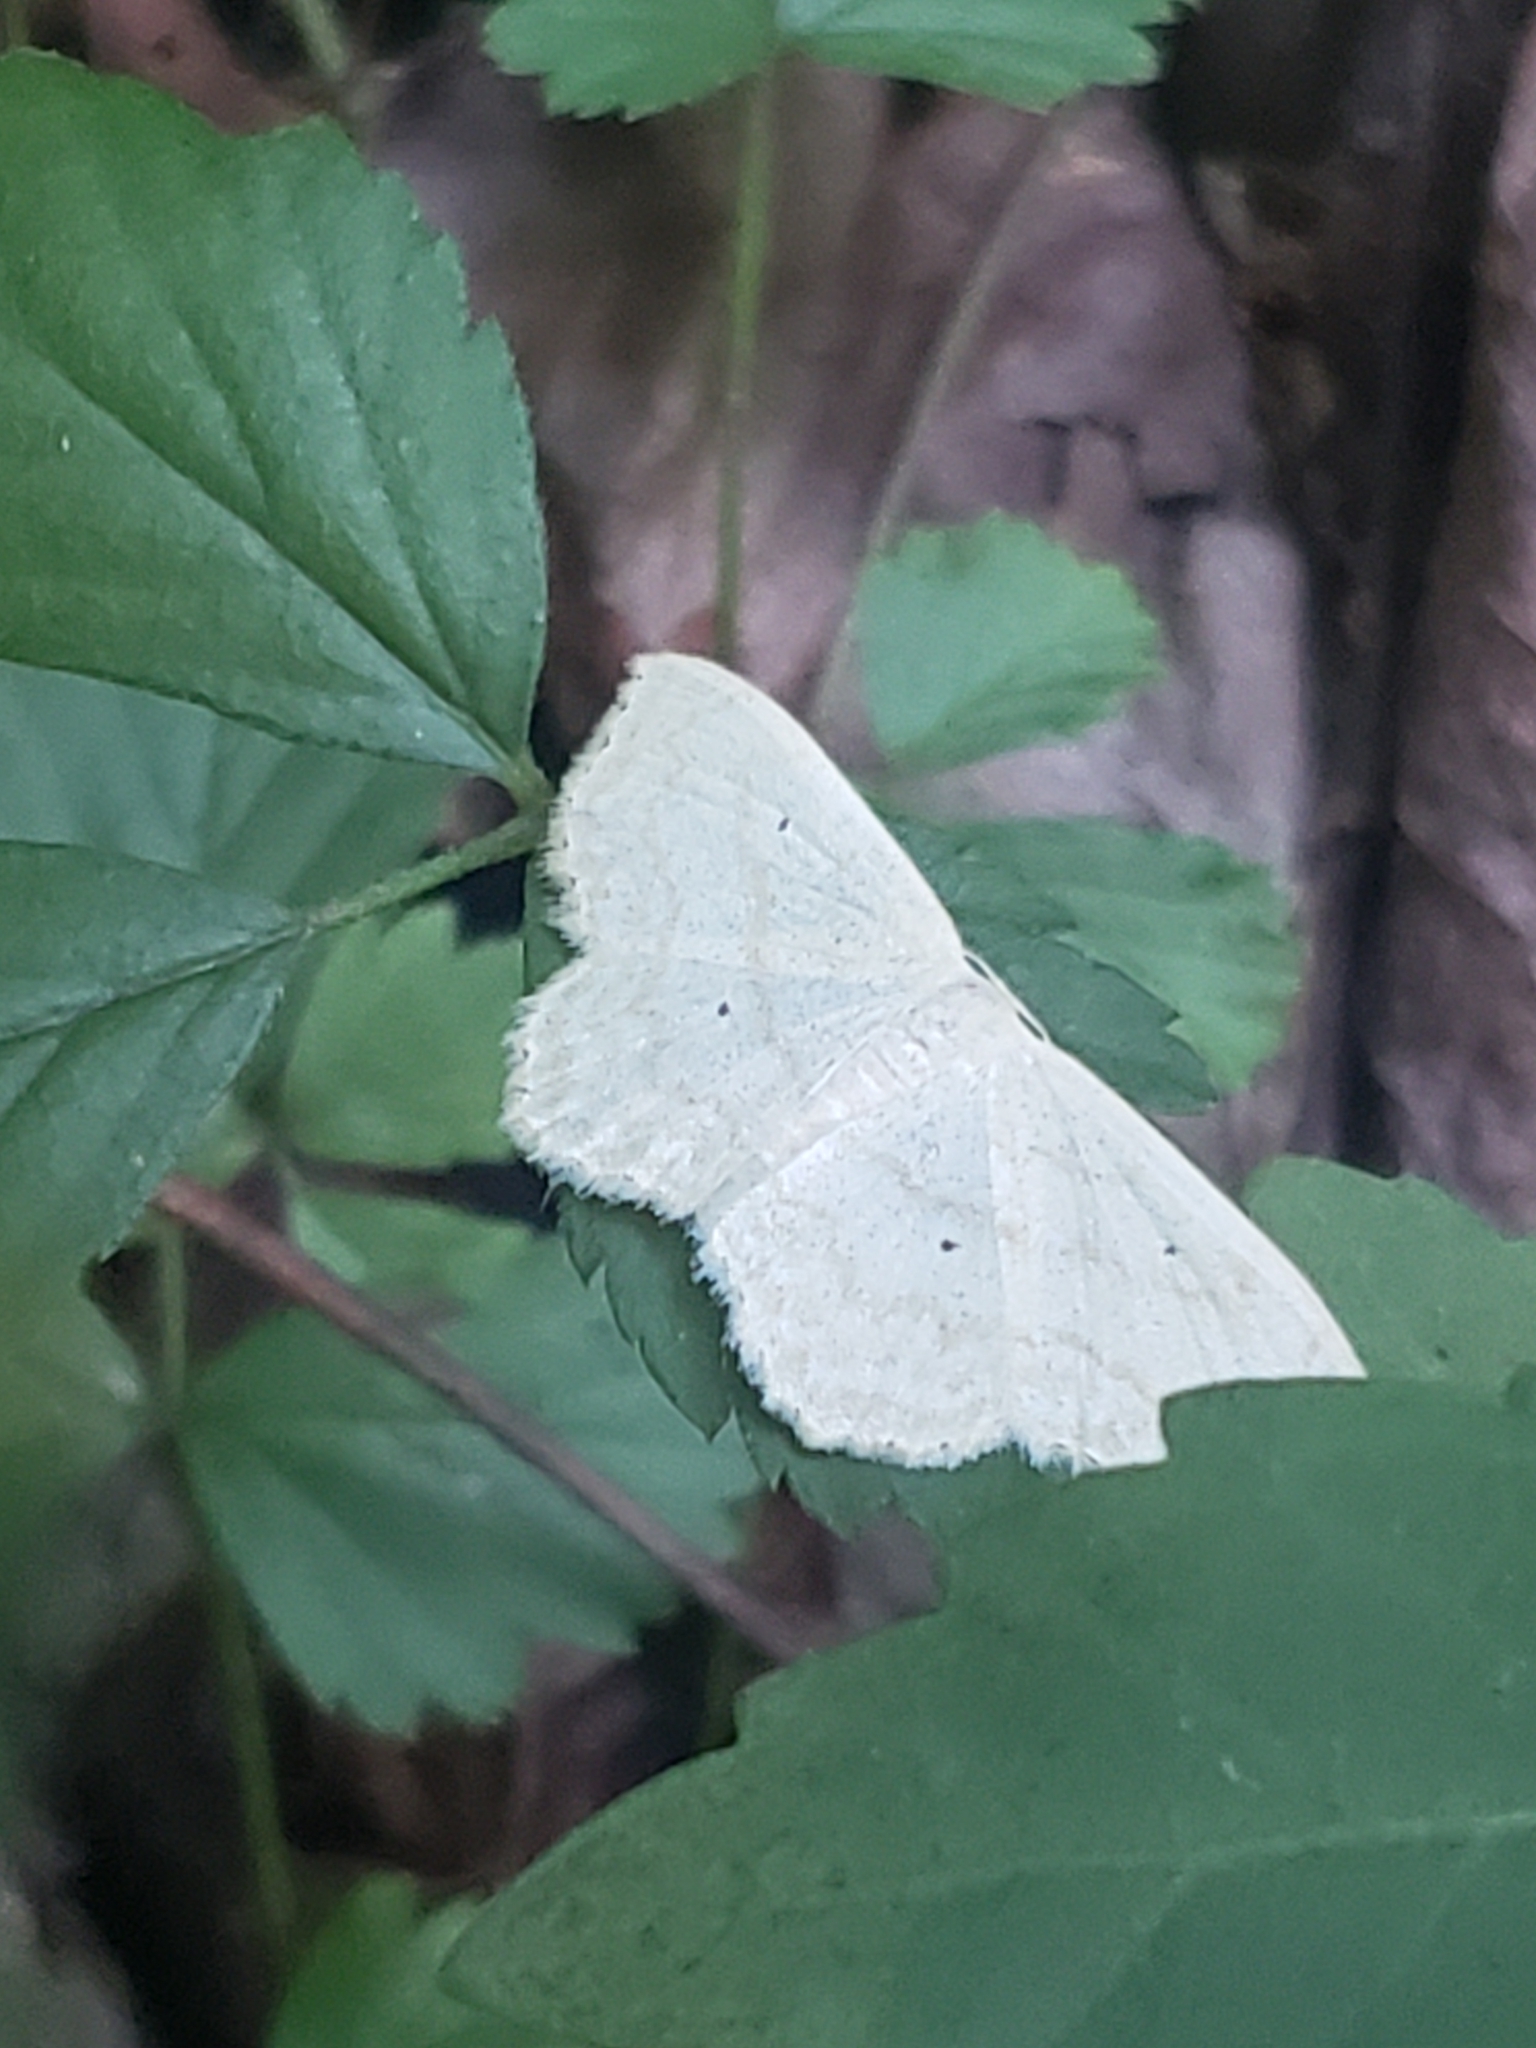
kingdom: Animalia
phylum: Arthropoda
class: Insecta
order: Lepidoptera
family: Geometridae
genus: Scopula
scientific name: Scopula limboundata
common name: Large lace border
